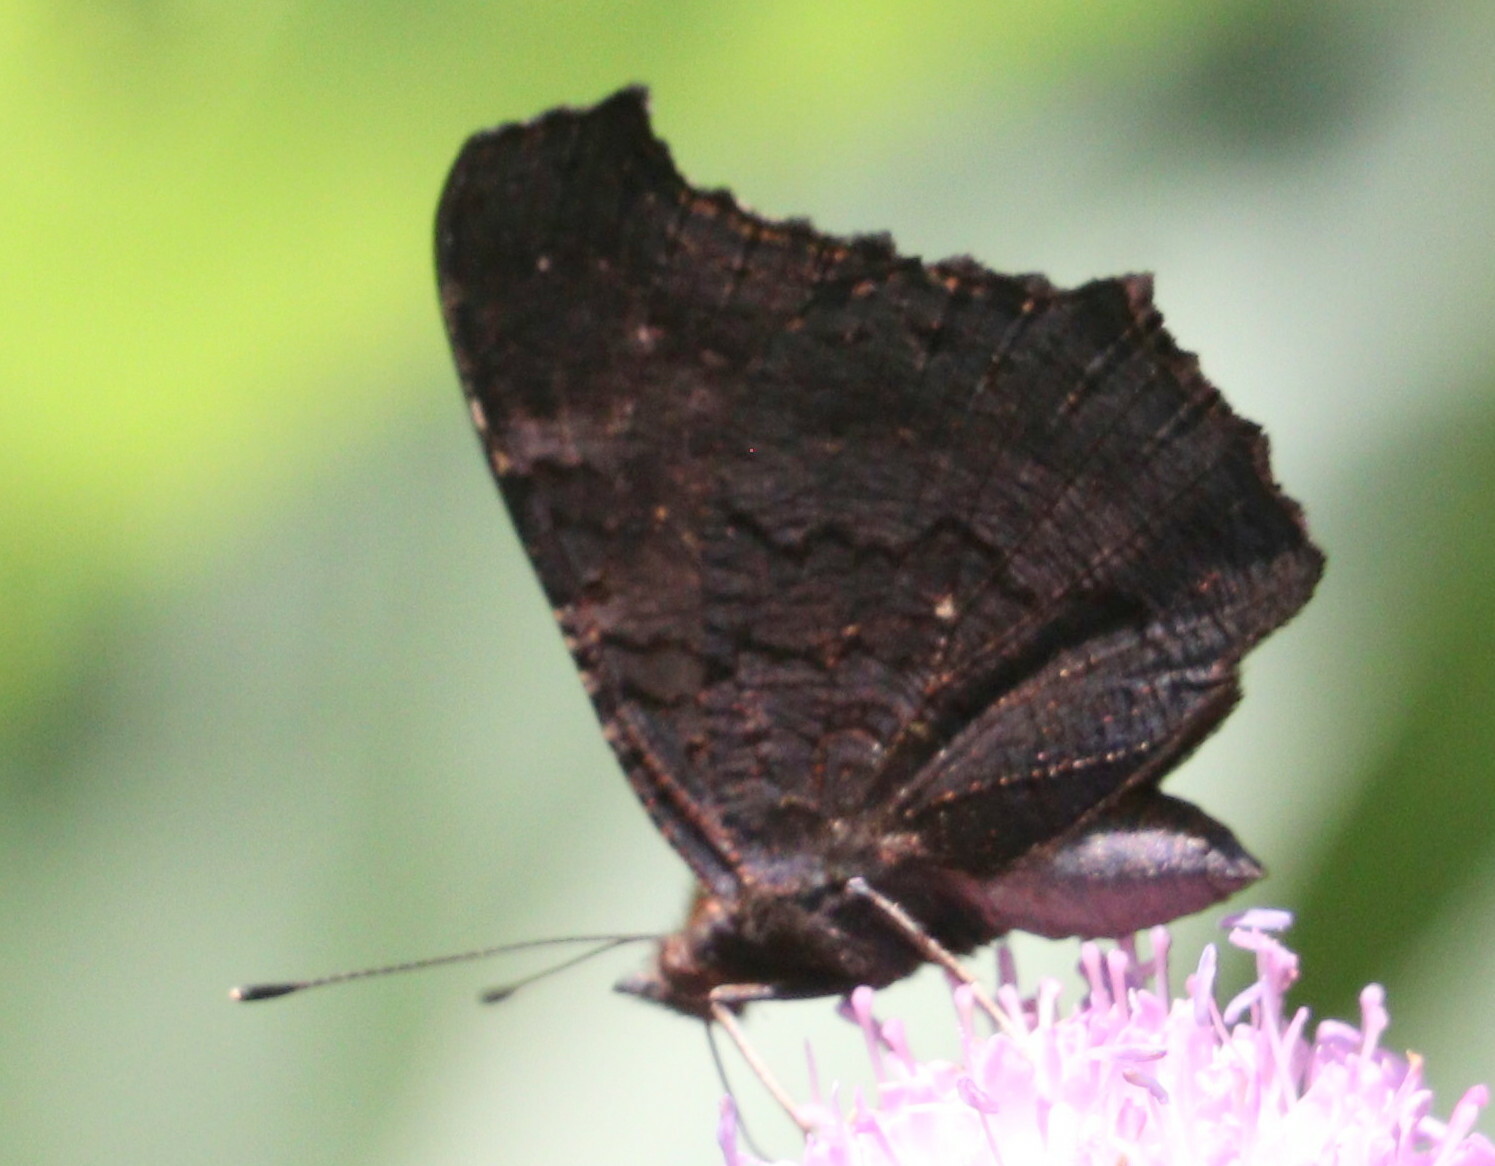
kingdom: Animalia
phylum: Arthropoda
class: Insecta
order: Lepidoptera
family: Nymphalidae
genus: Aglais
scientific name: Aglais io
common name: Peacock
